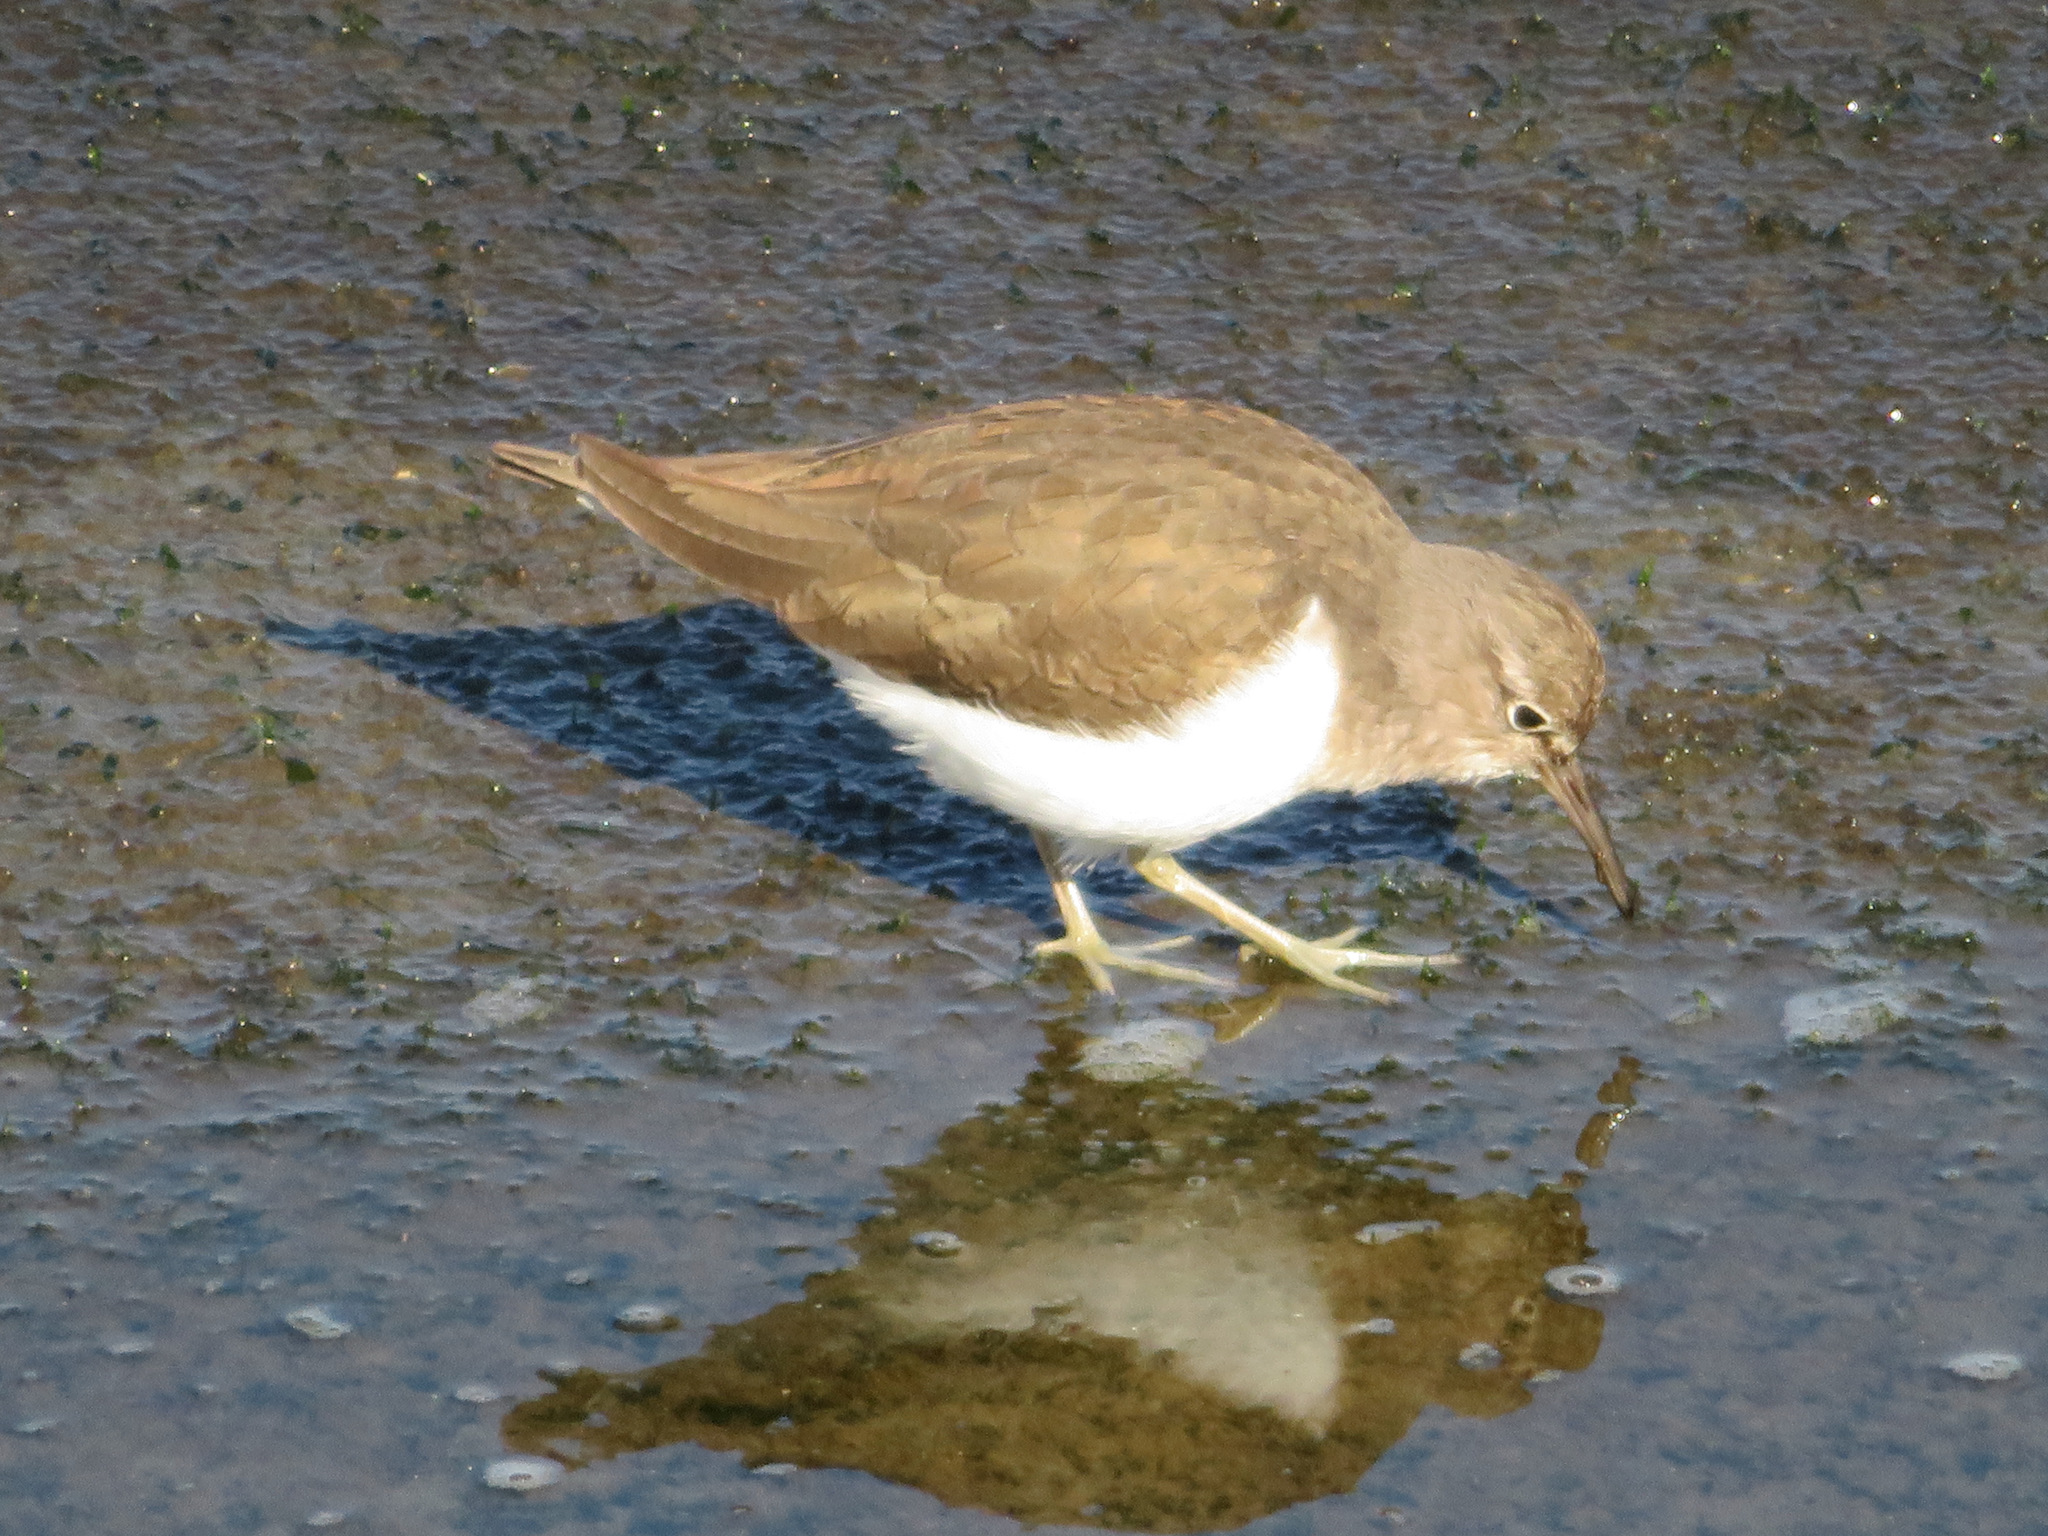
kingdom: Animalia
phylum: Chordata
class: Aves
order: Charadriiformes
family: Scolopacidae
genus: Actitis
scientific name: Actitis hypoleucos
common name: Common sandpiper
